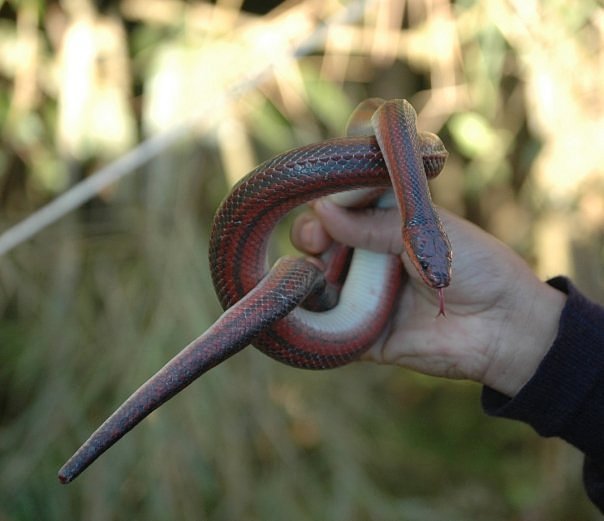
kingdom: Animalia
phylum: Chordata
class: Squamata
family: Pseudoxyrhophiidae
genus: Pseudoxyrhopus
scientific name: Pseudoxyrhopus tritaeniatus
